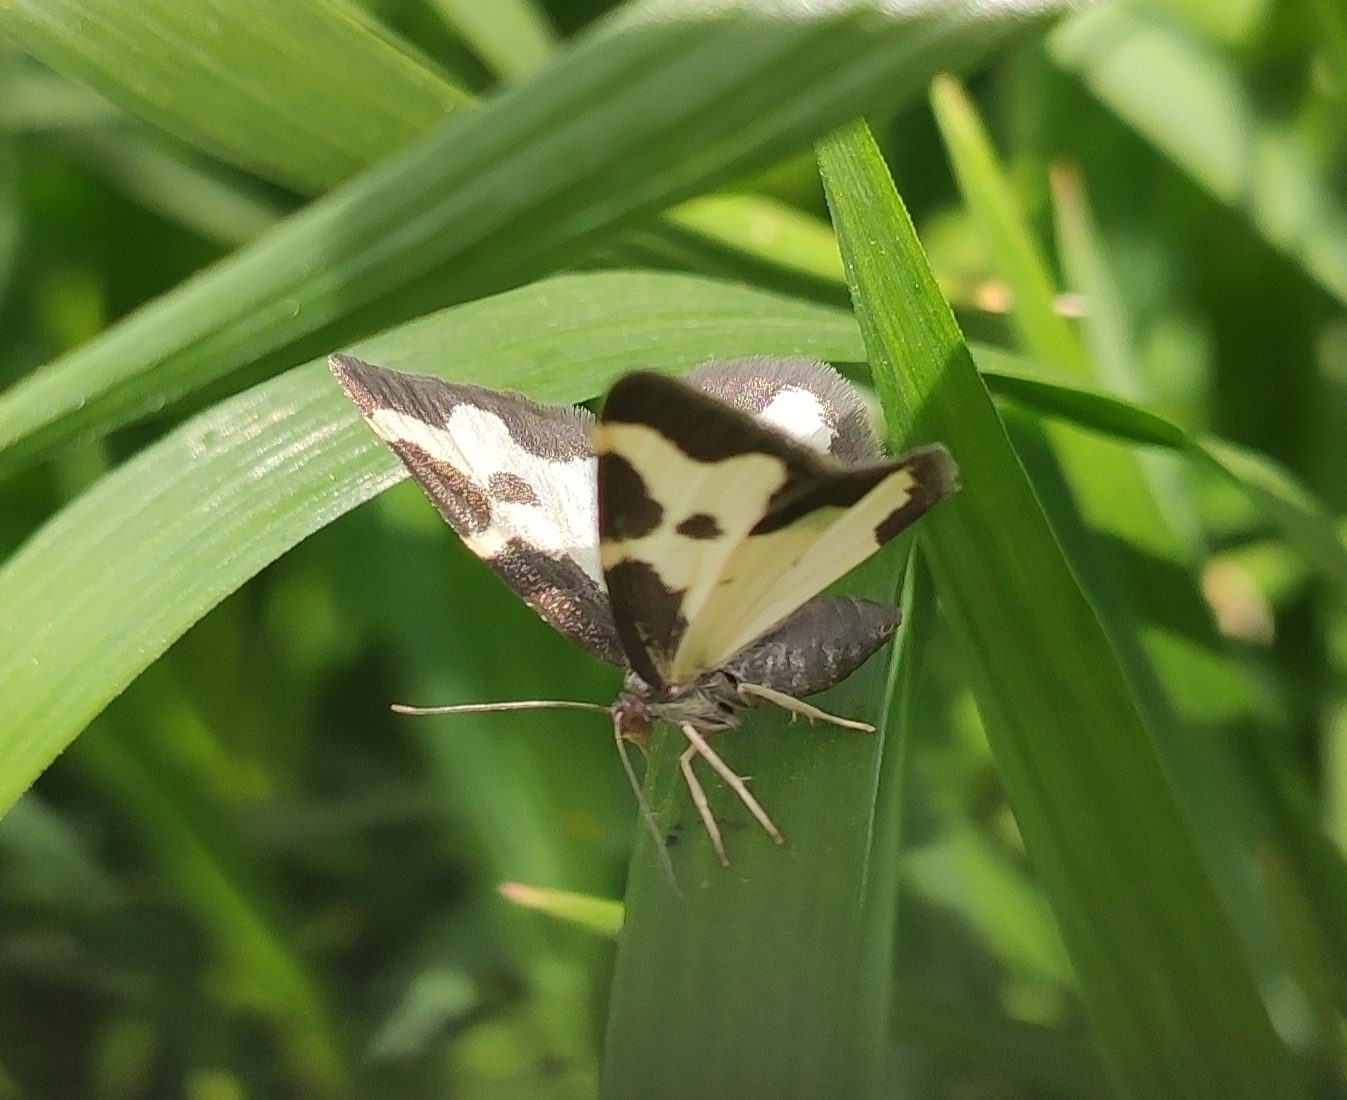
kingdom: Animalia
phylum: Arthropoda
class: Insecta
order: Lepidoptera
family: Geometridae
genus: Lomaspilis
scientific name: Lomaspilis marginata
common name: Clouded border
